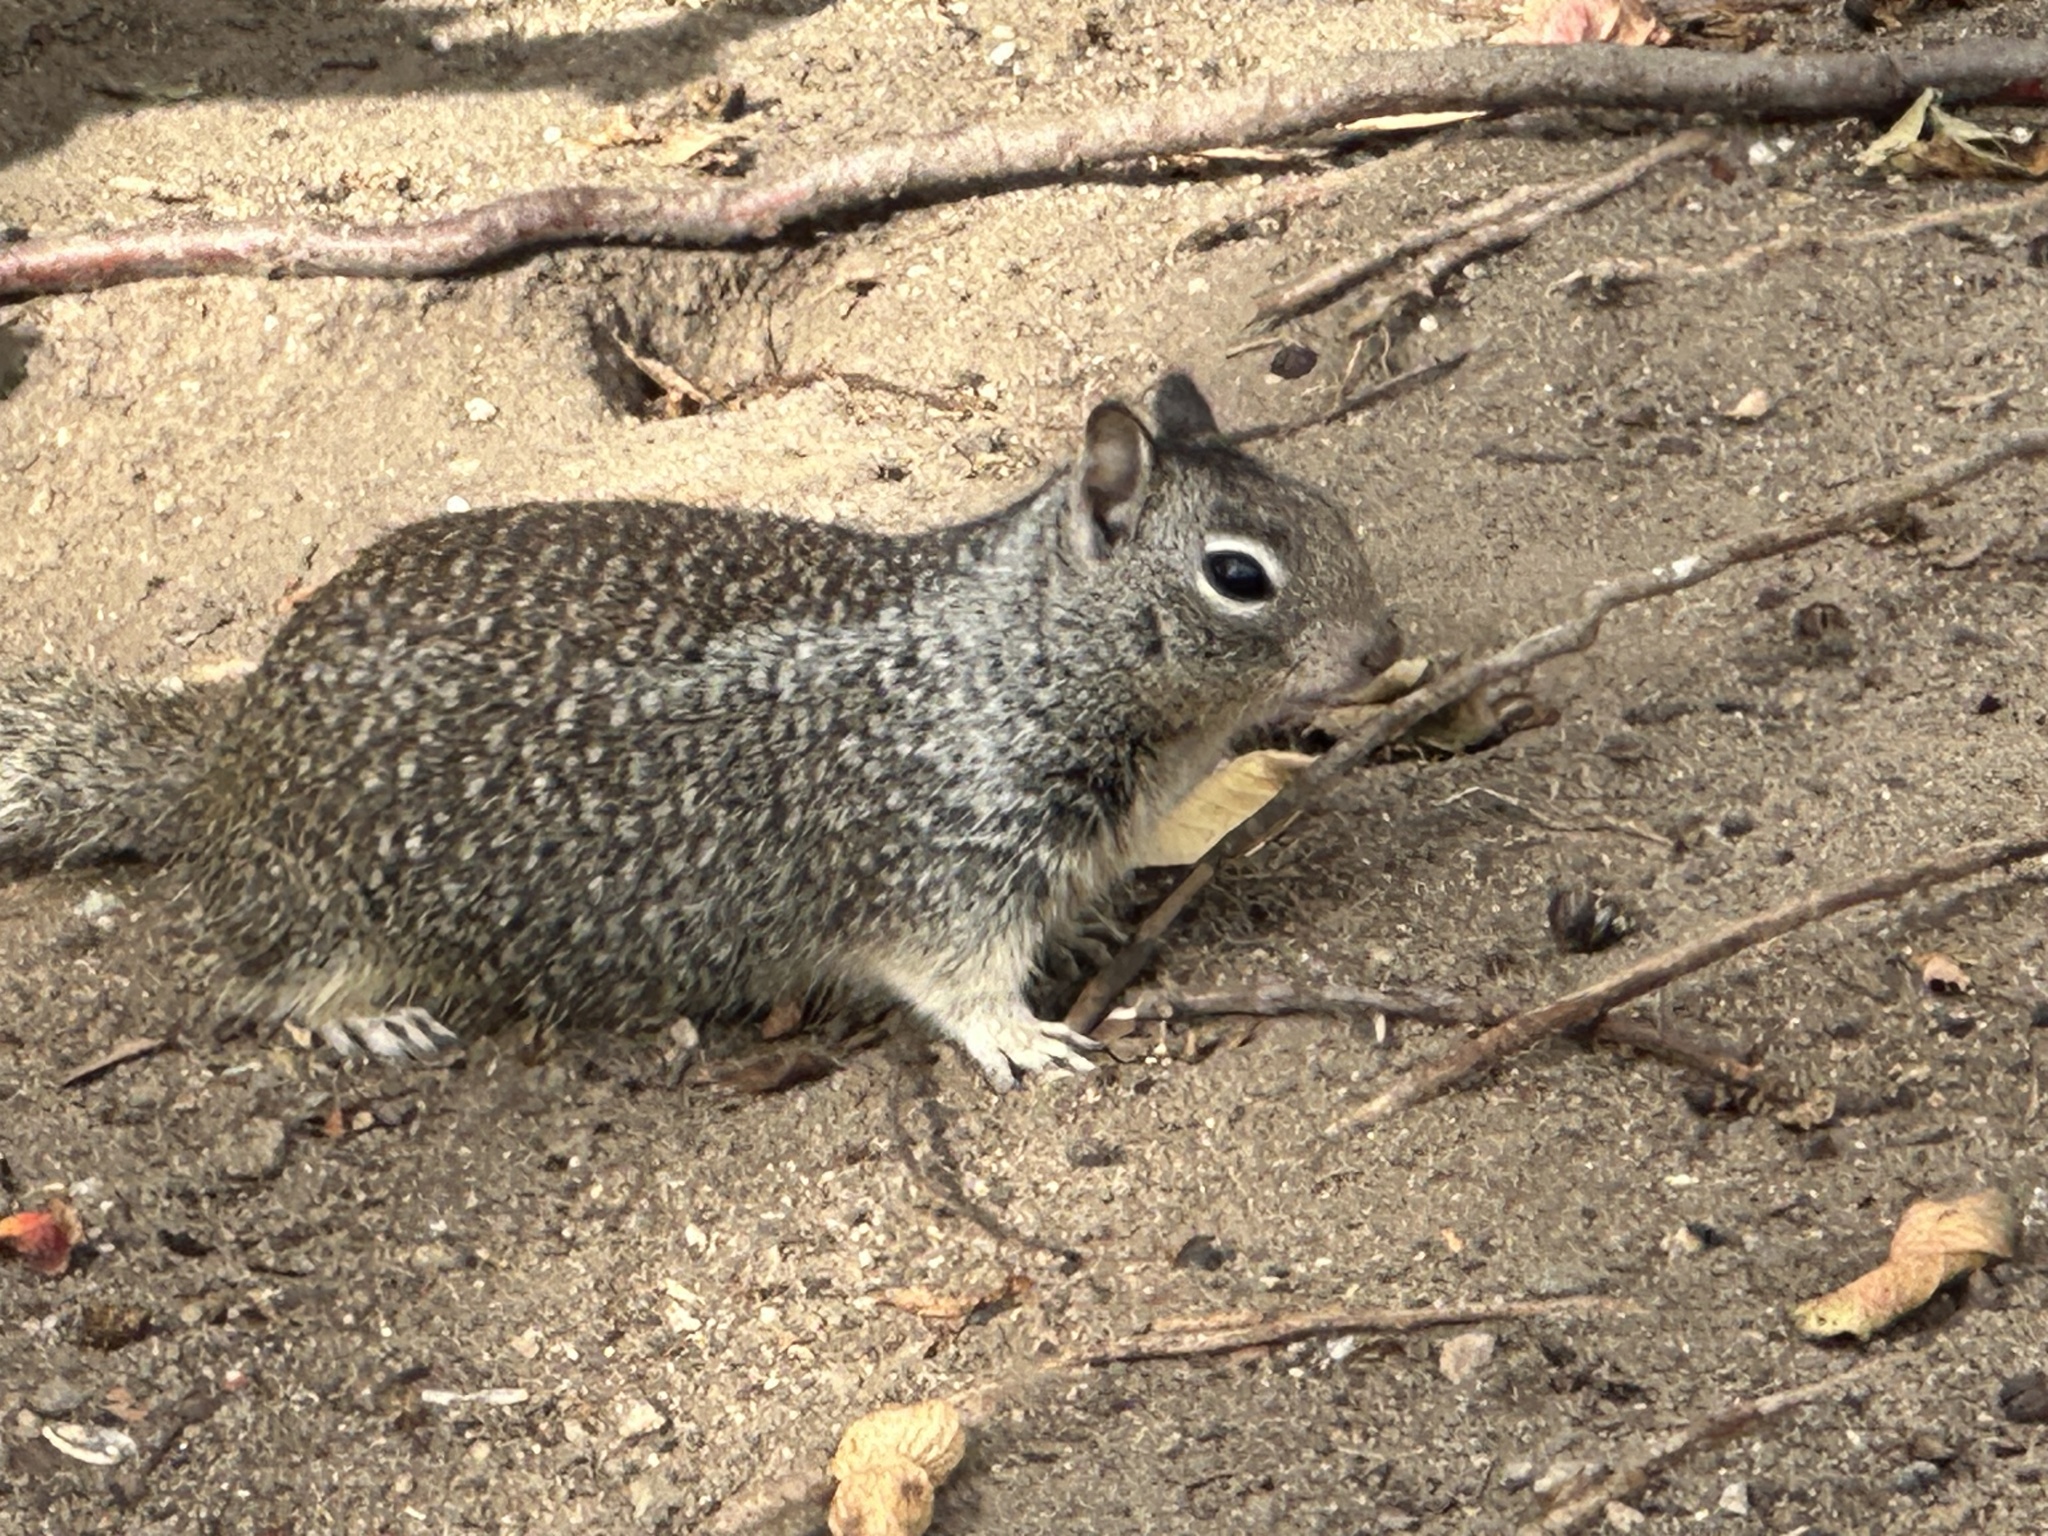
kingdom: Animalia
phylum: Chordata
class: Mammalia
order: Rodentia
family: Sciuridae
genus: Otospermophilus
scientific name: Otospermophilus beecheyi
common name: California ground squirrel
